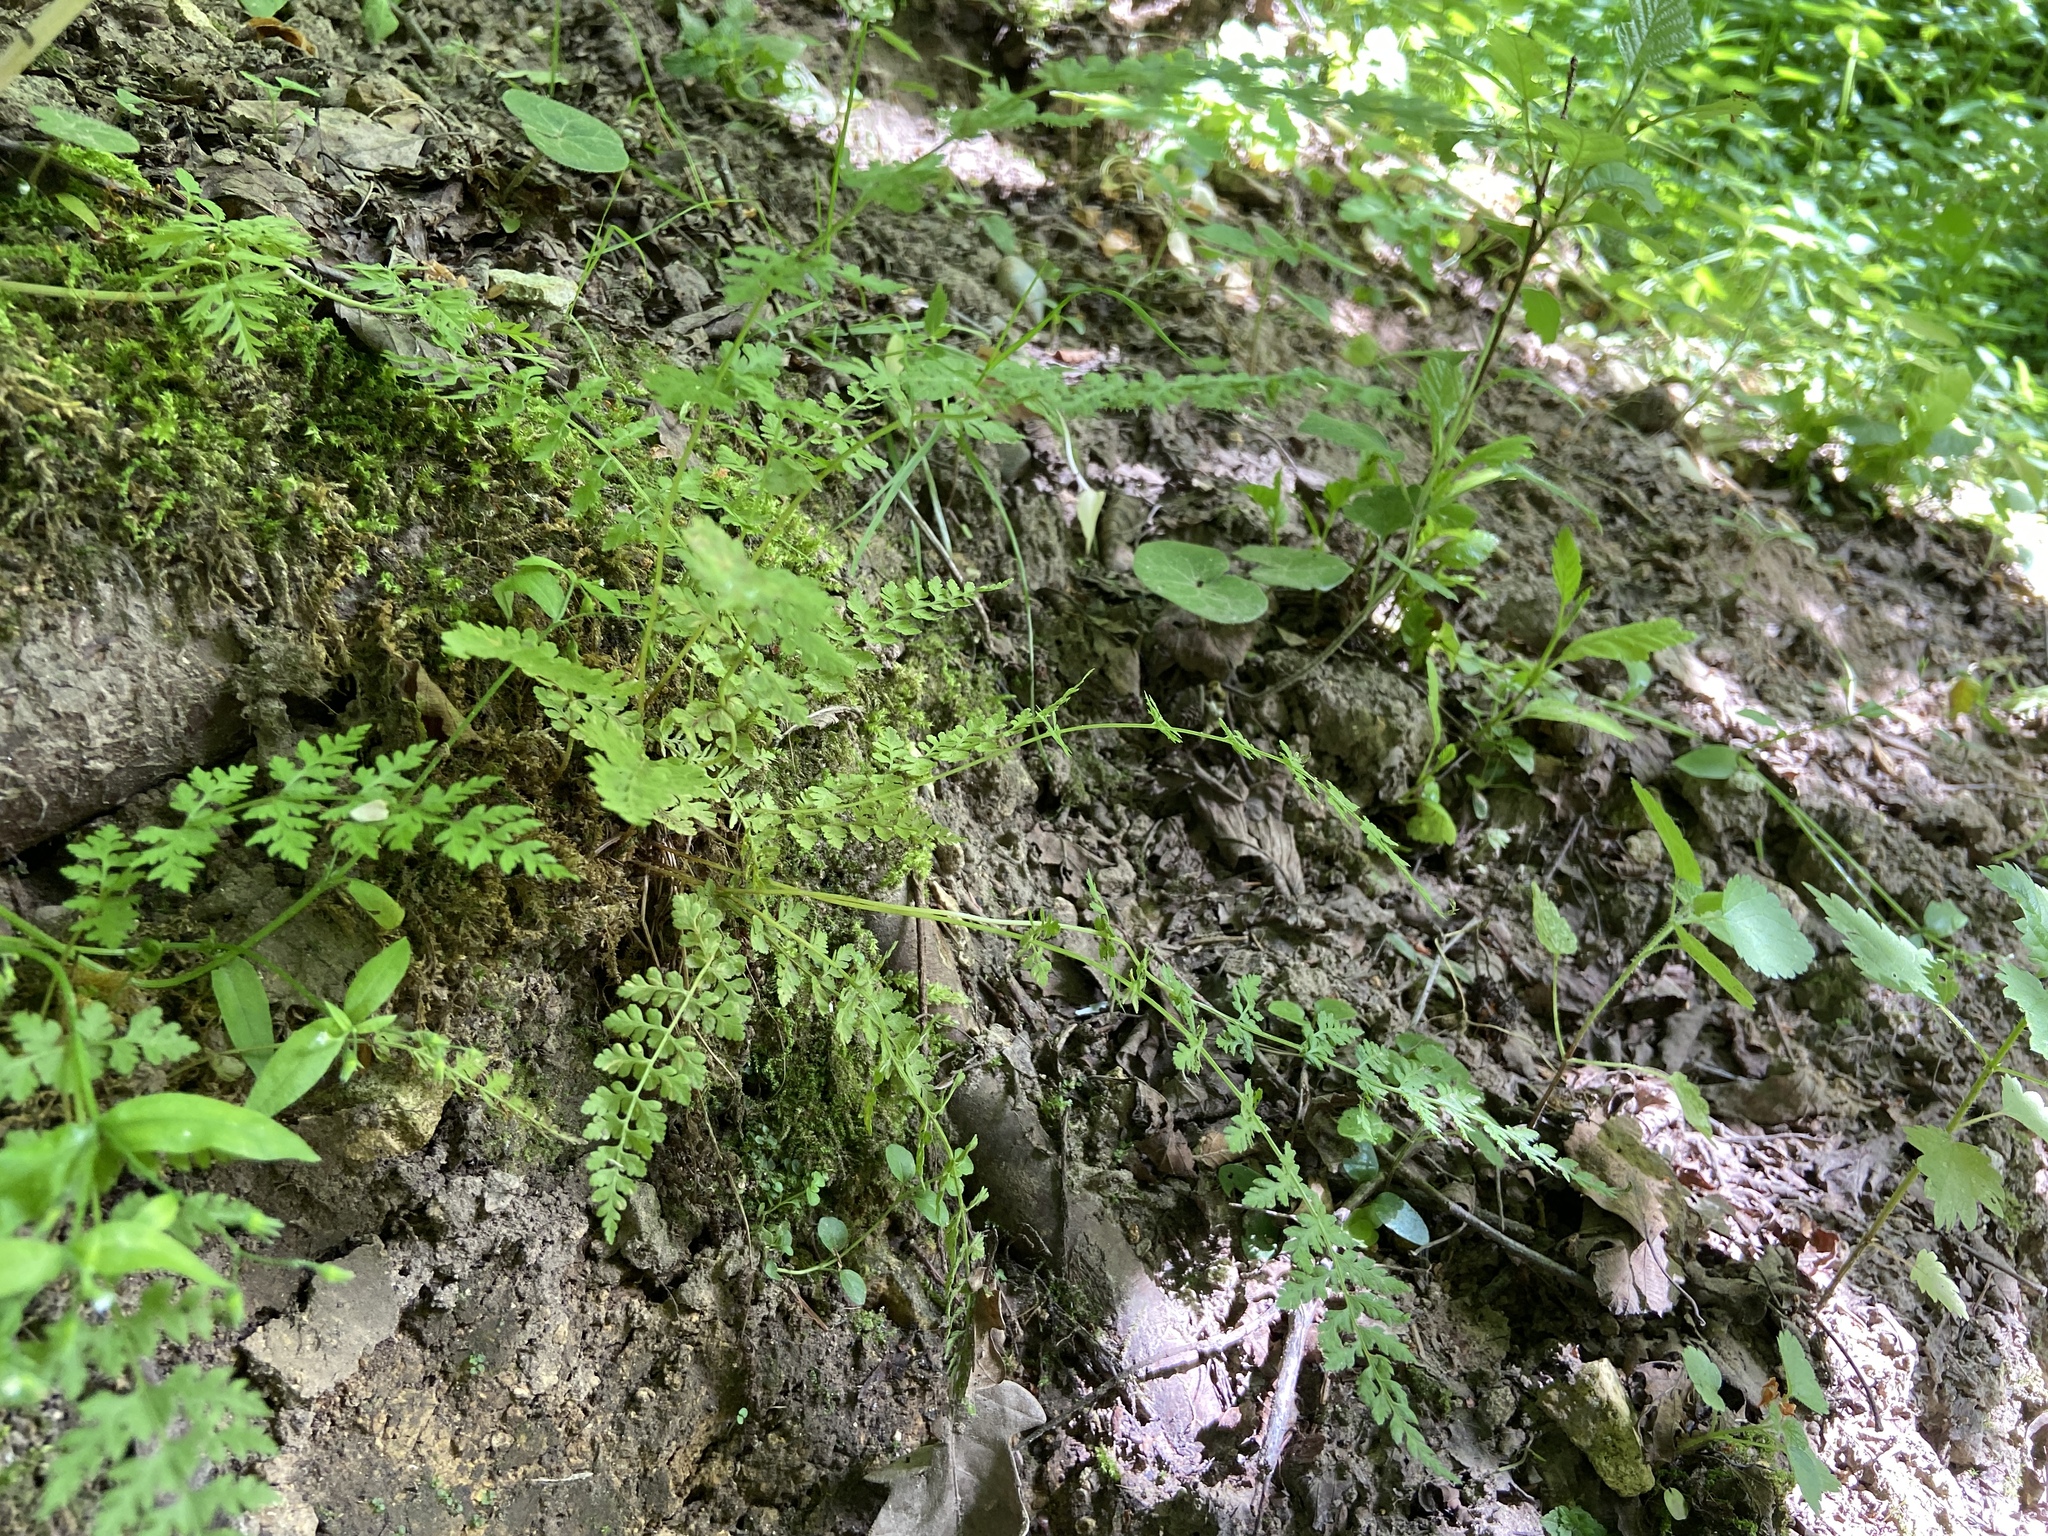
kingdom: Plantae
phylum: Tracheophyta
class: Polypodiopsida
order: Polypodiales
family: Cystopteridaceae
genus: Cystopteris
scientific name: Cystopteris fragilis
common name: Brittle bladder fern
